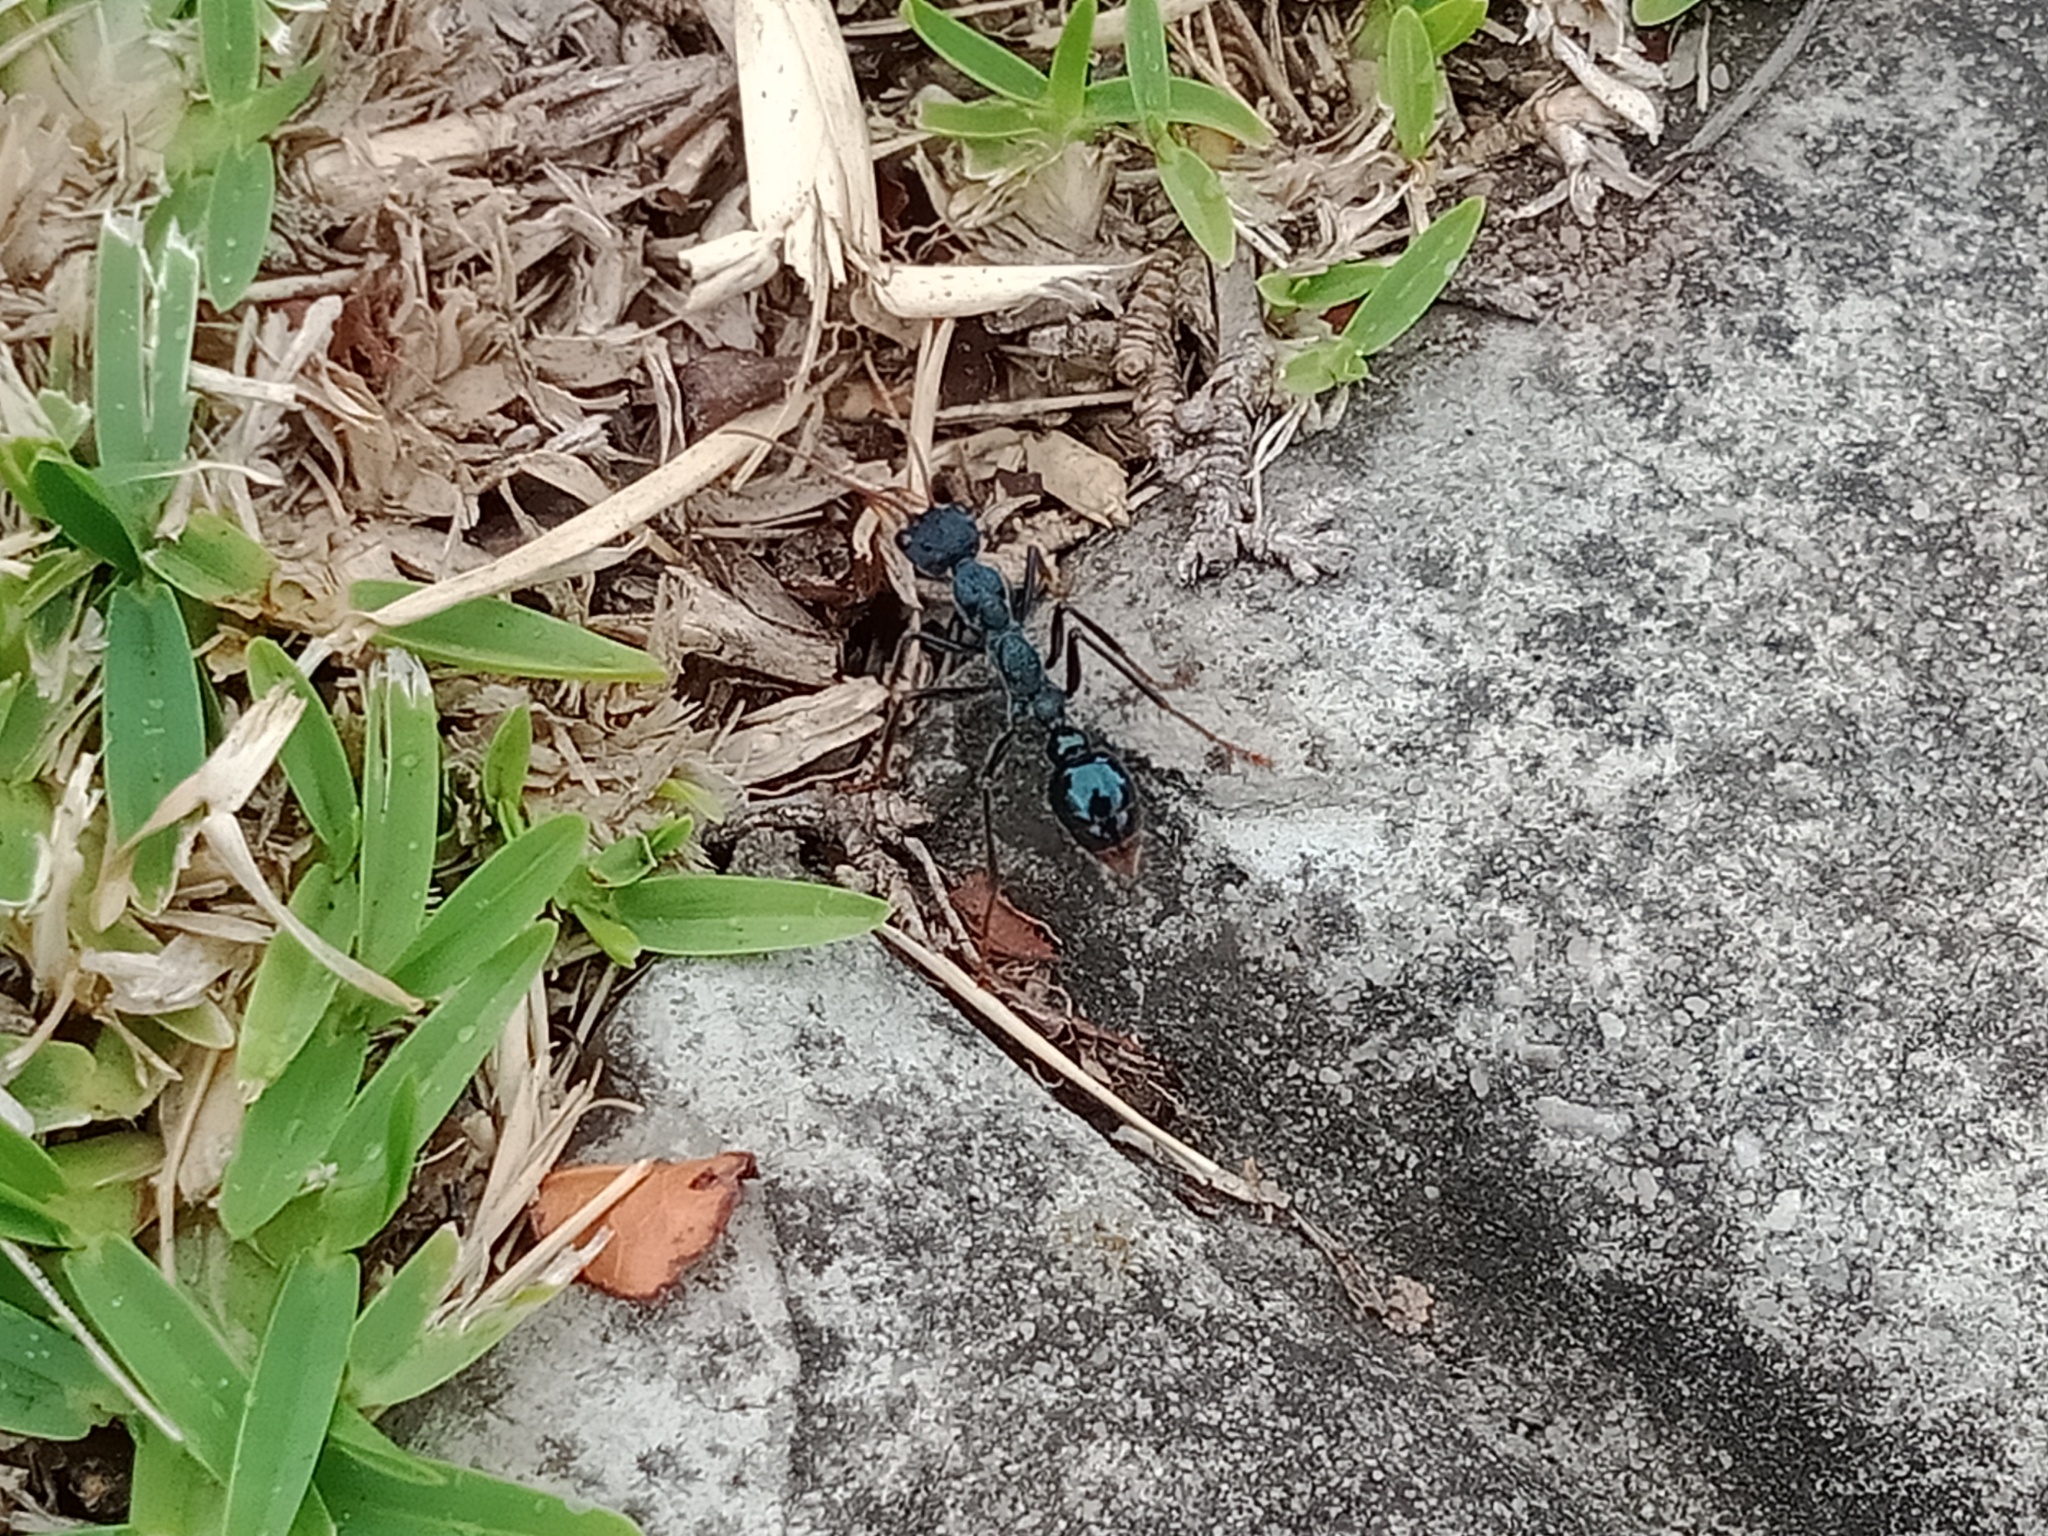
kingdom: Animalia
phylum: Arthropoda
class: Insecta
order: Hymenoptera
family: Formicidae
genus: Myrmecia
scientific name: Myrmecia tarsata
